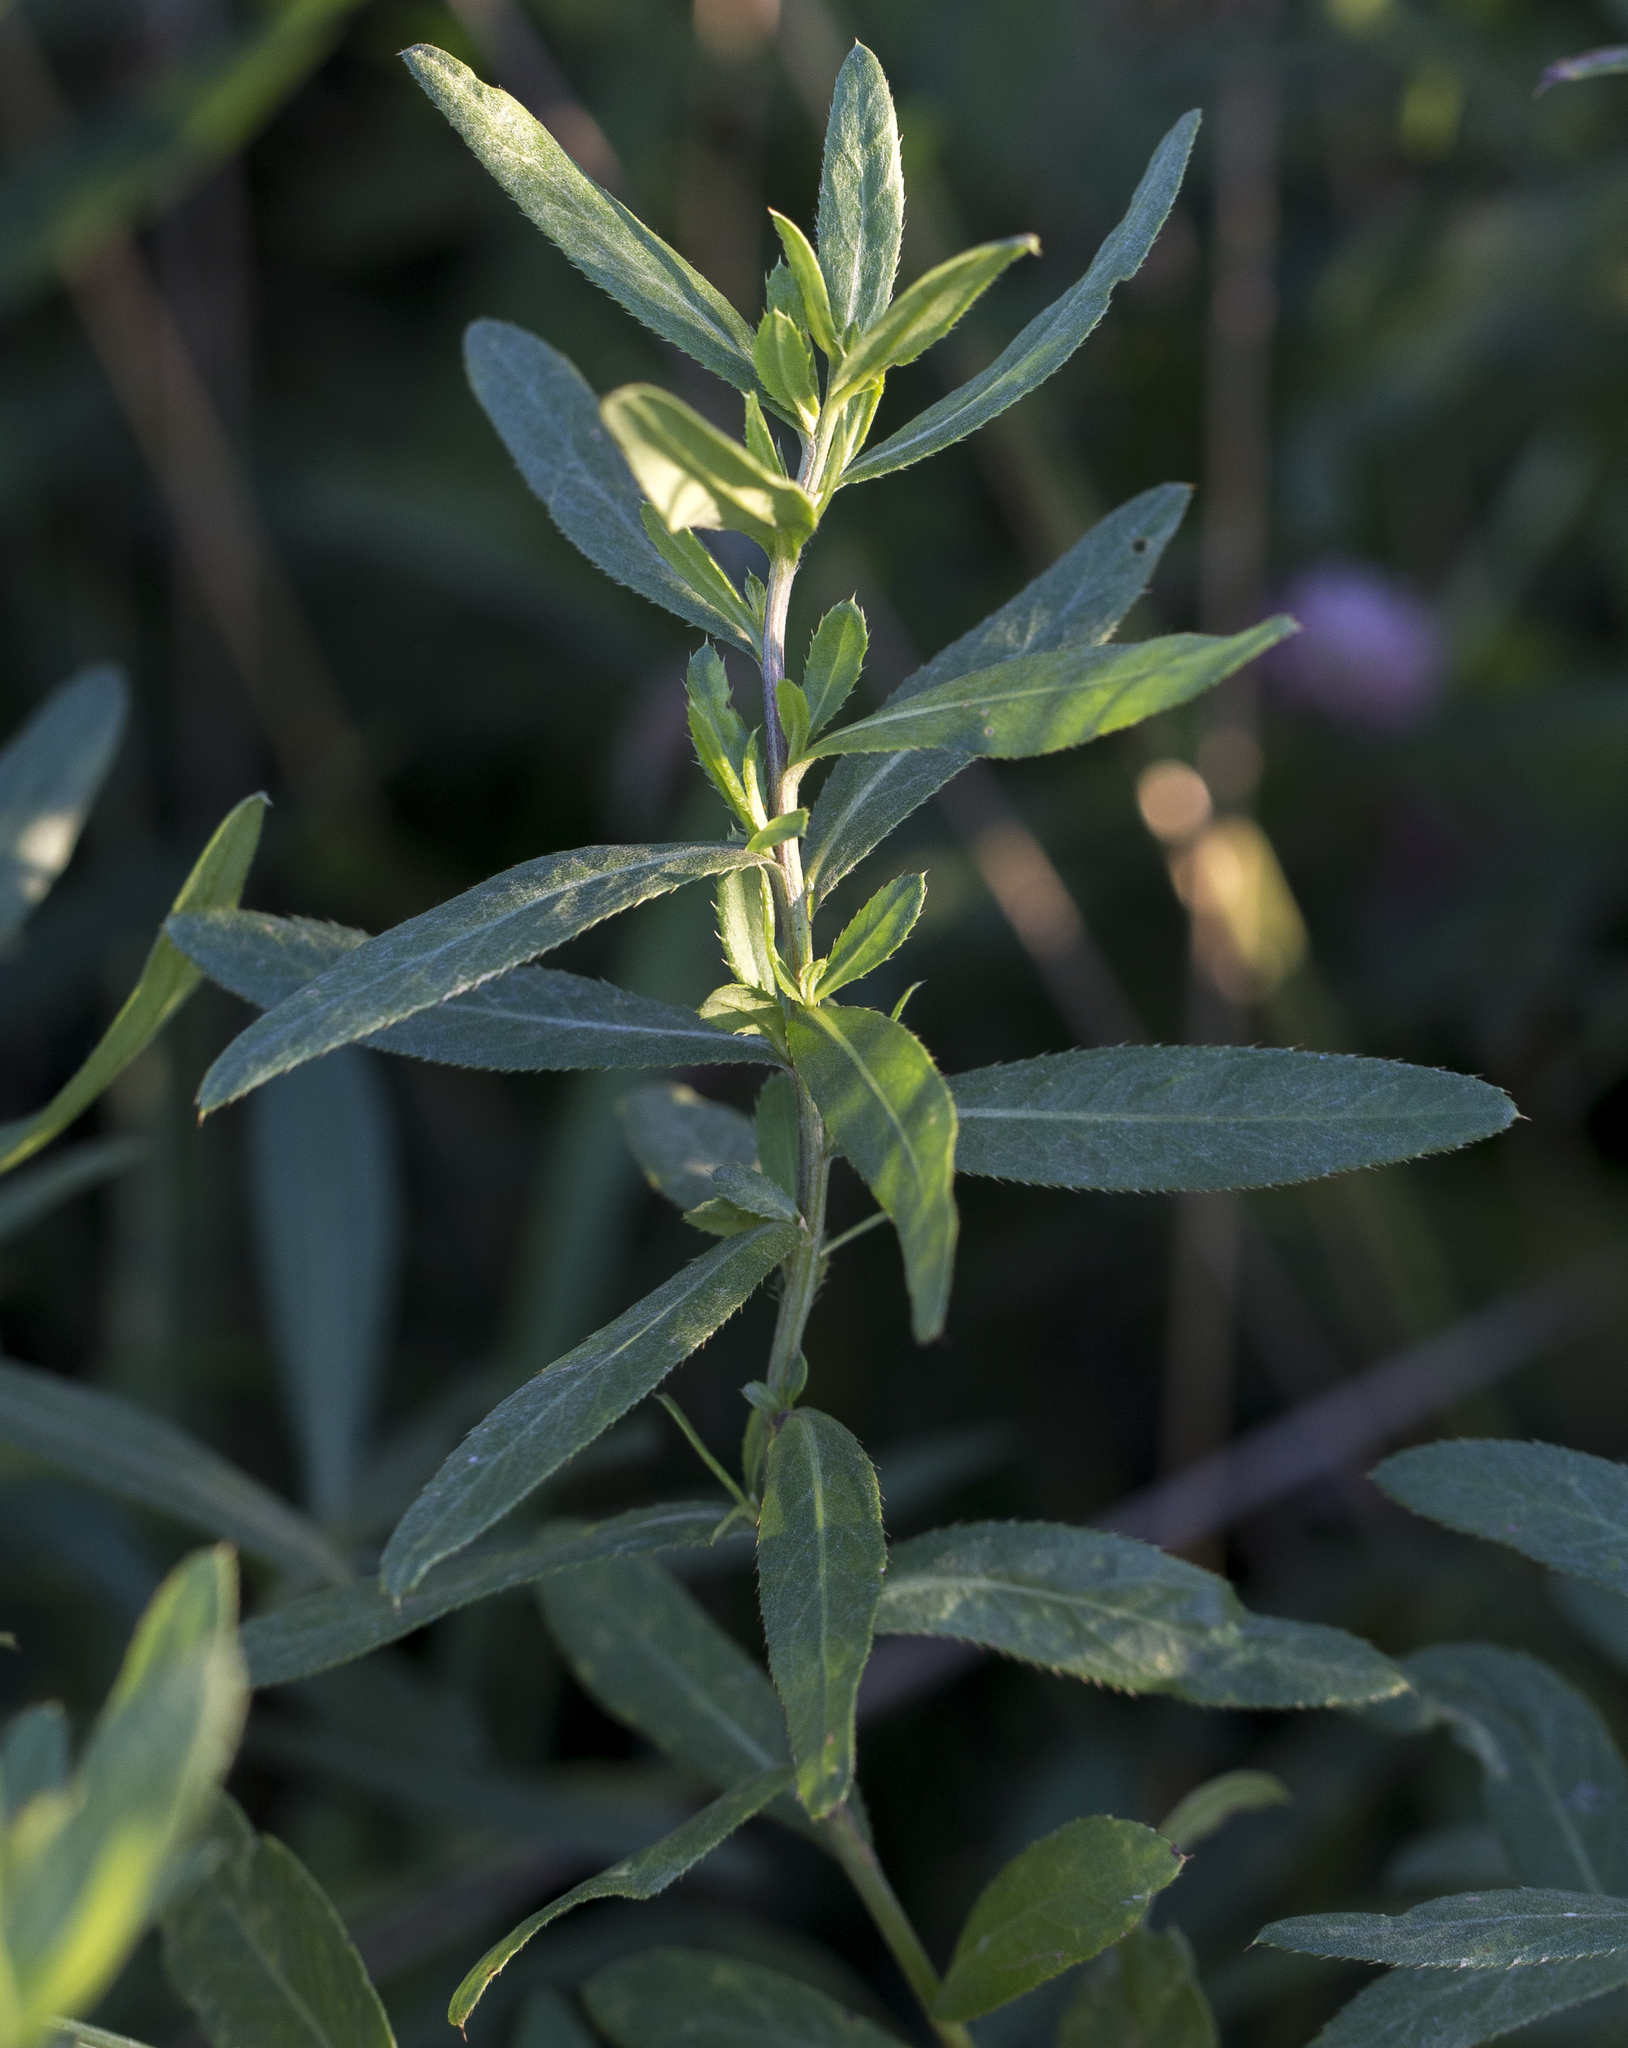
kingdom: Plantae
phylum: Tracheophyta
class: Magnoliopsida
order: Asterales
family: Asteraceae
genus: Cirsium
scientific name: Cirsium arvense
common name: Creeping thistle
